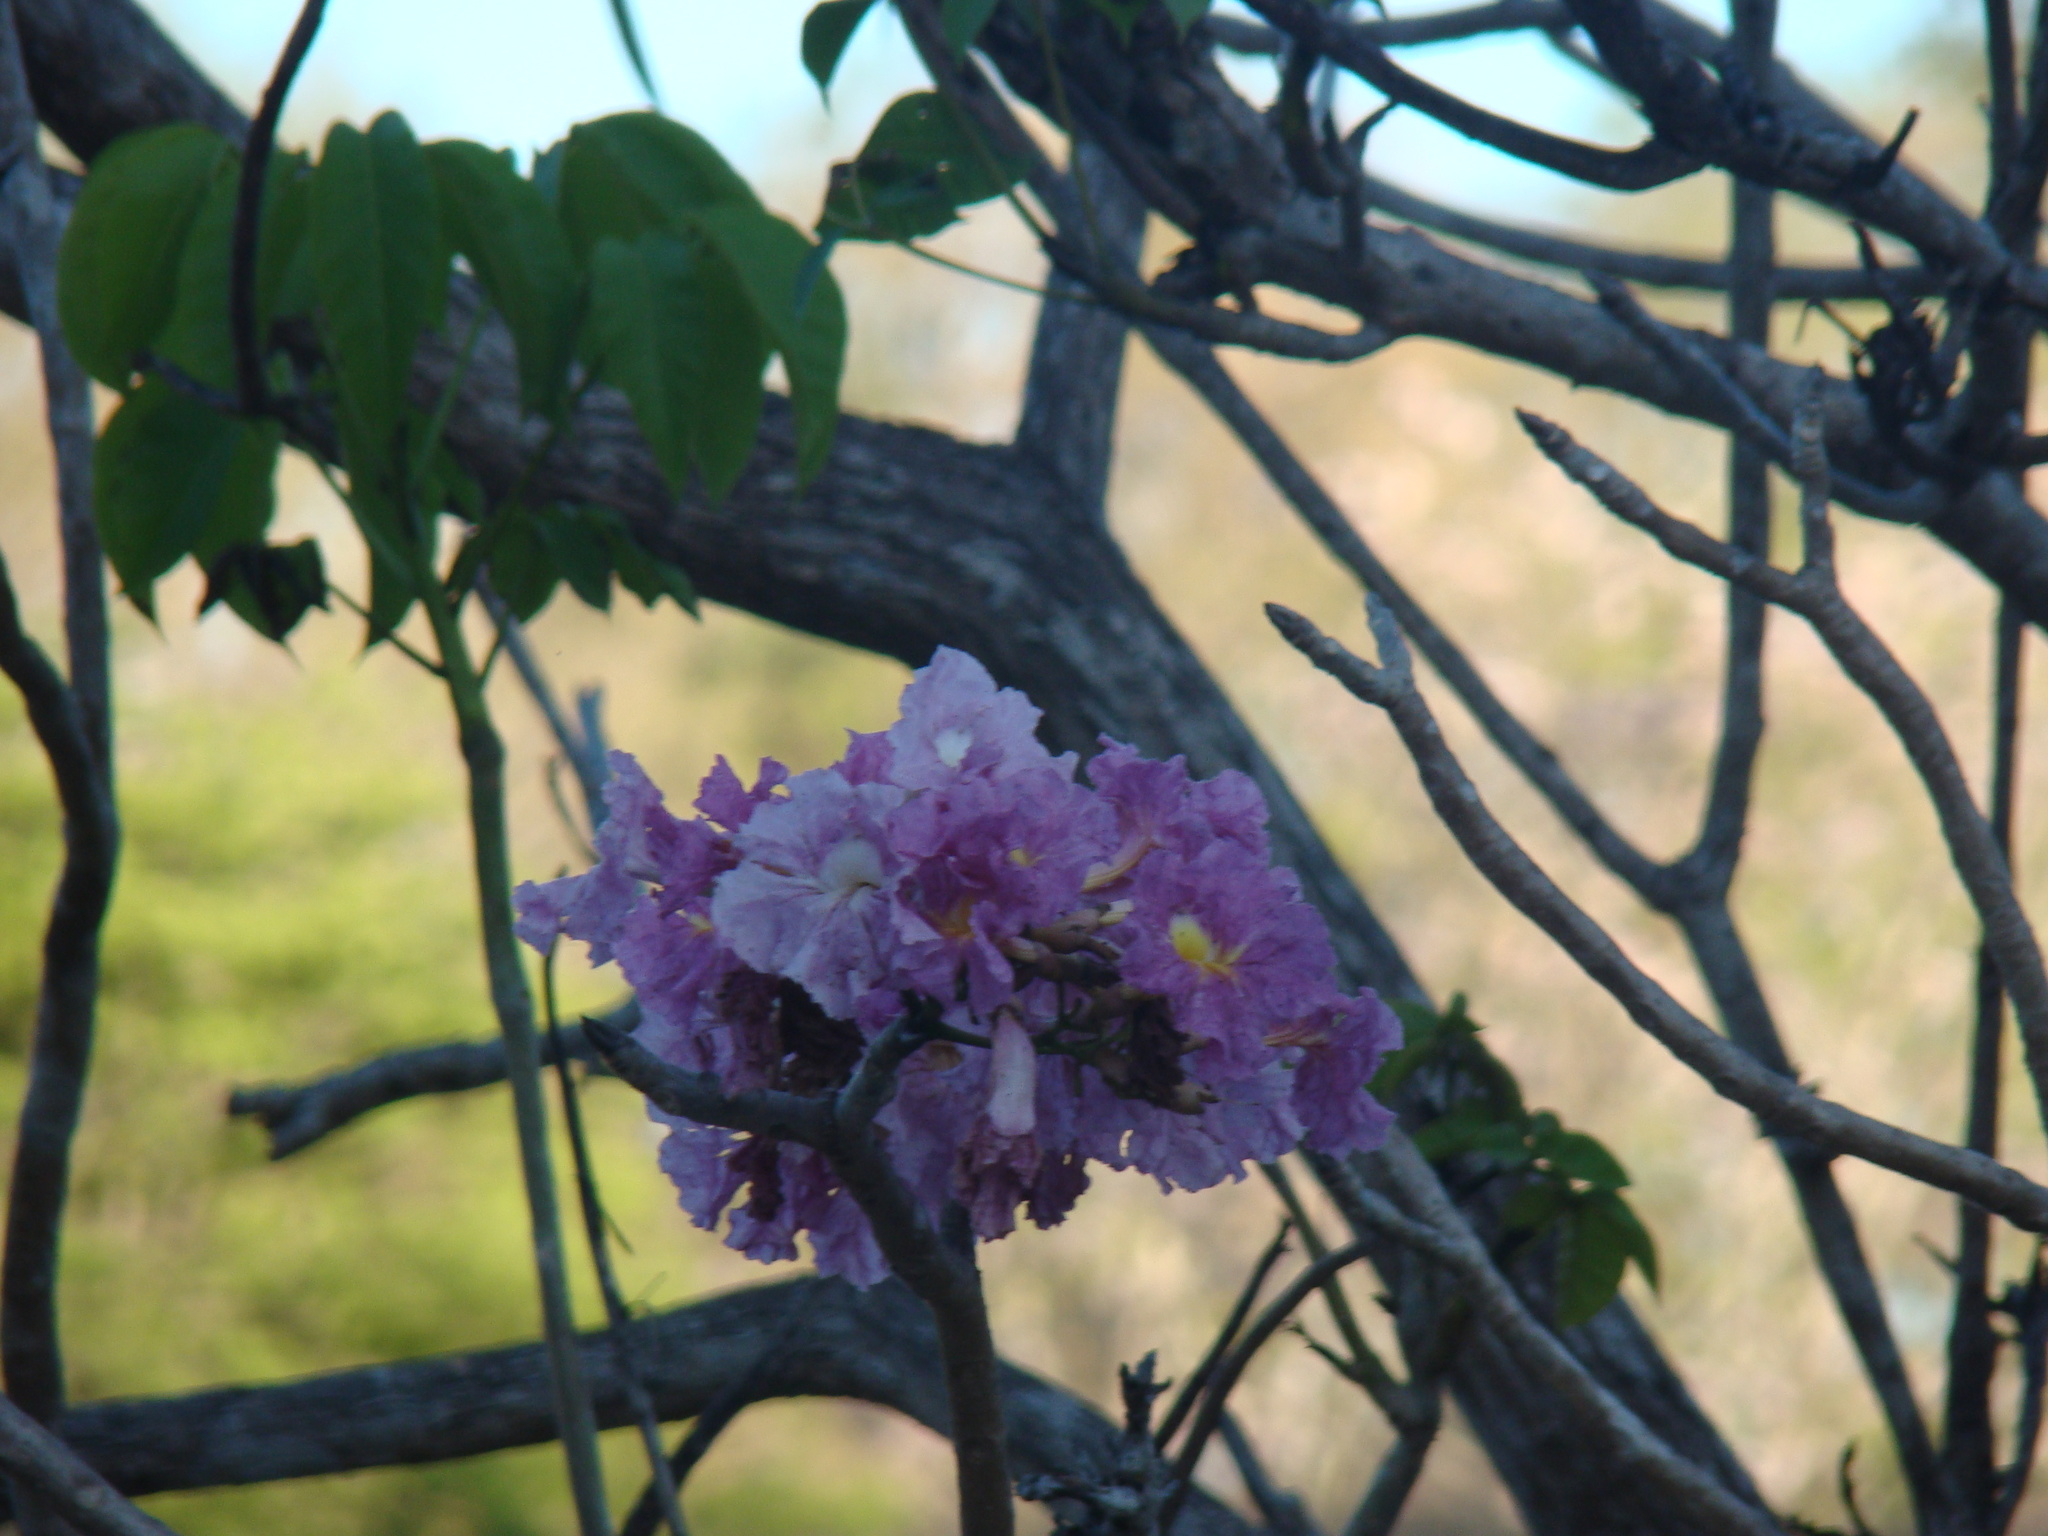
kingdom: Plantae
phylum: Tracheophyta
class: Magnoliopsida
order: Lamiales
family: Bignoniaceae
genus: Tabebuia
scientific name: Tabebuia rosea
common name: Pink poui
